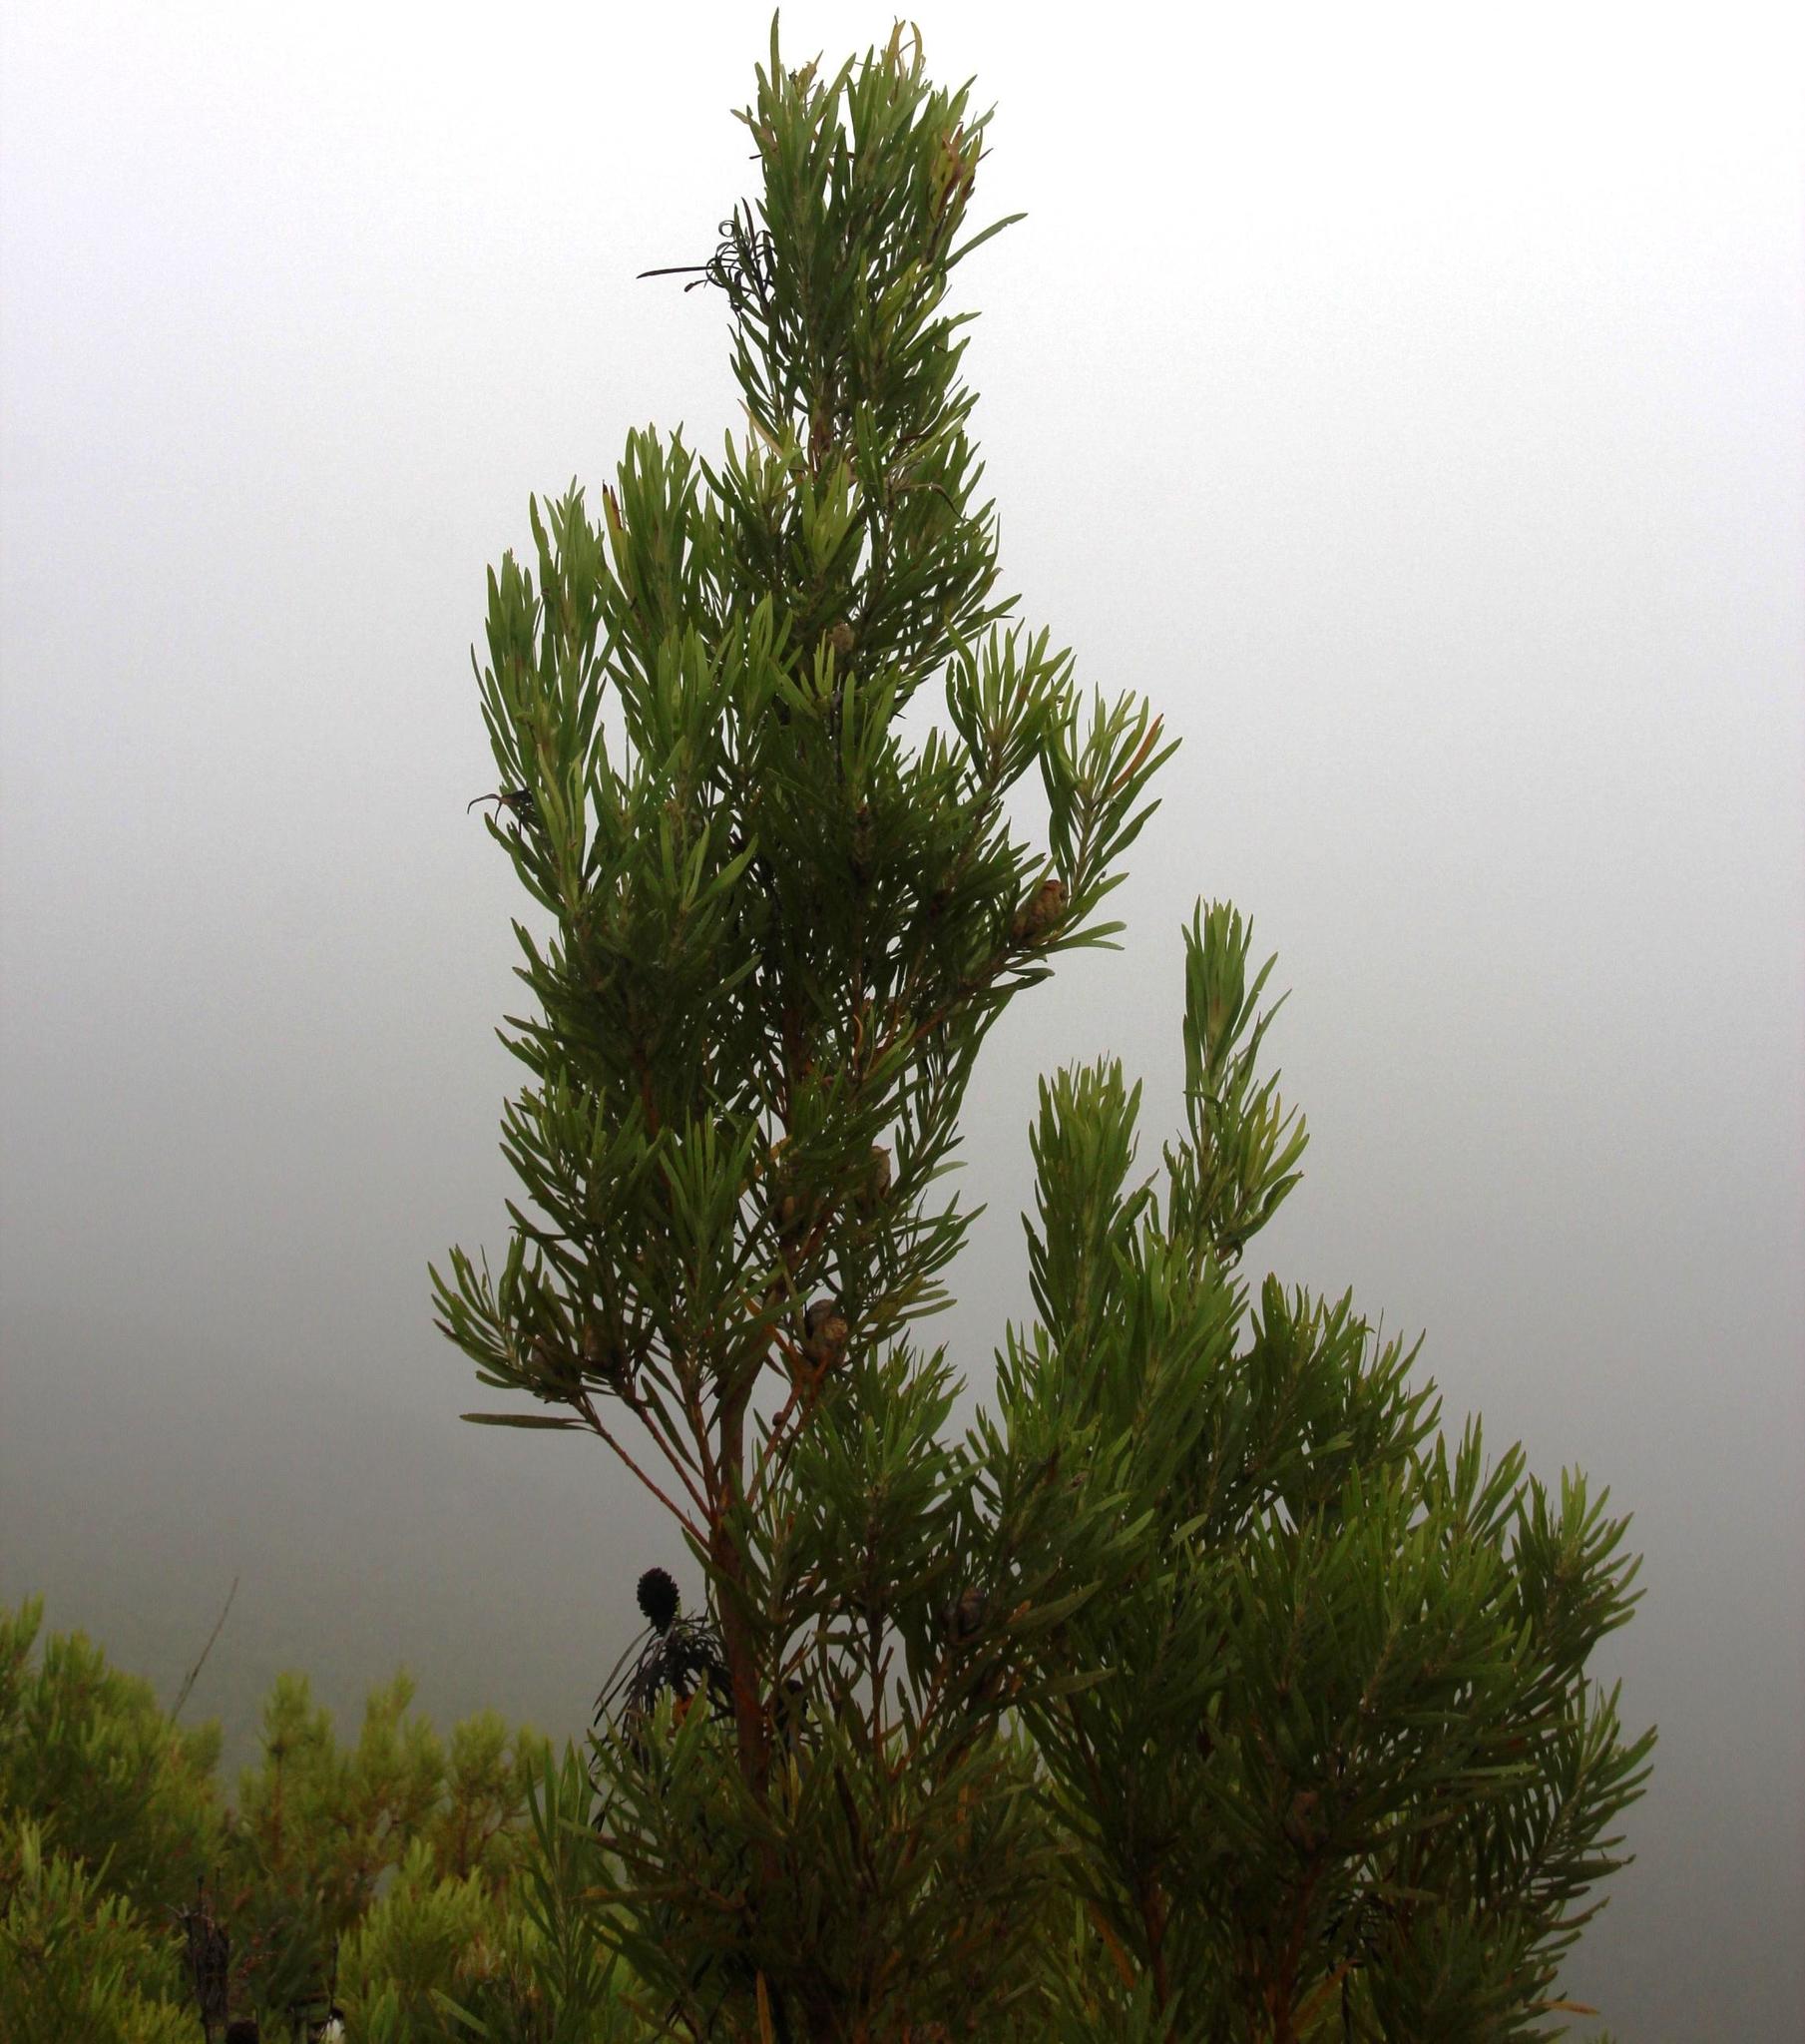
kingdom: Plantae
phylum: Tracheophyta
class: Magnoliopsida
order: Proteales
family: Proteaceae
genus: Leucadendron
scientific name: Leucadendron eucalyptifolium
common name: Gum-leaved conebush
